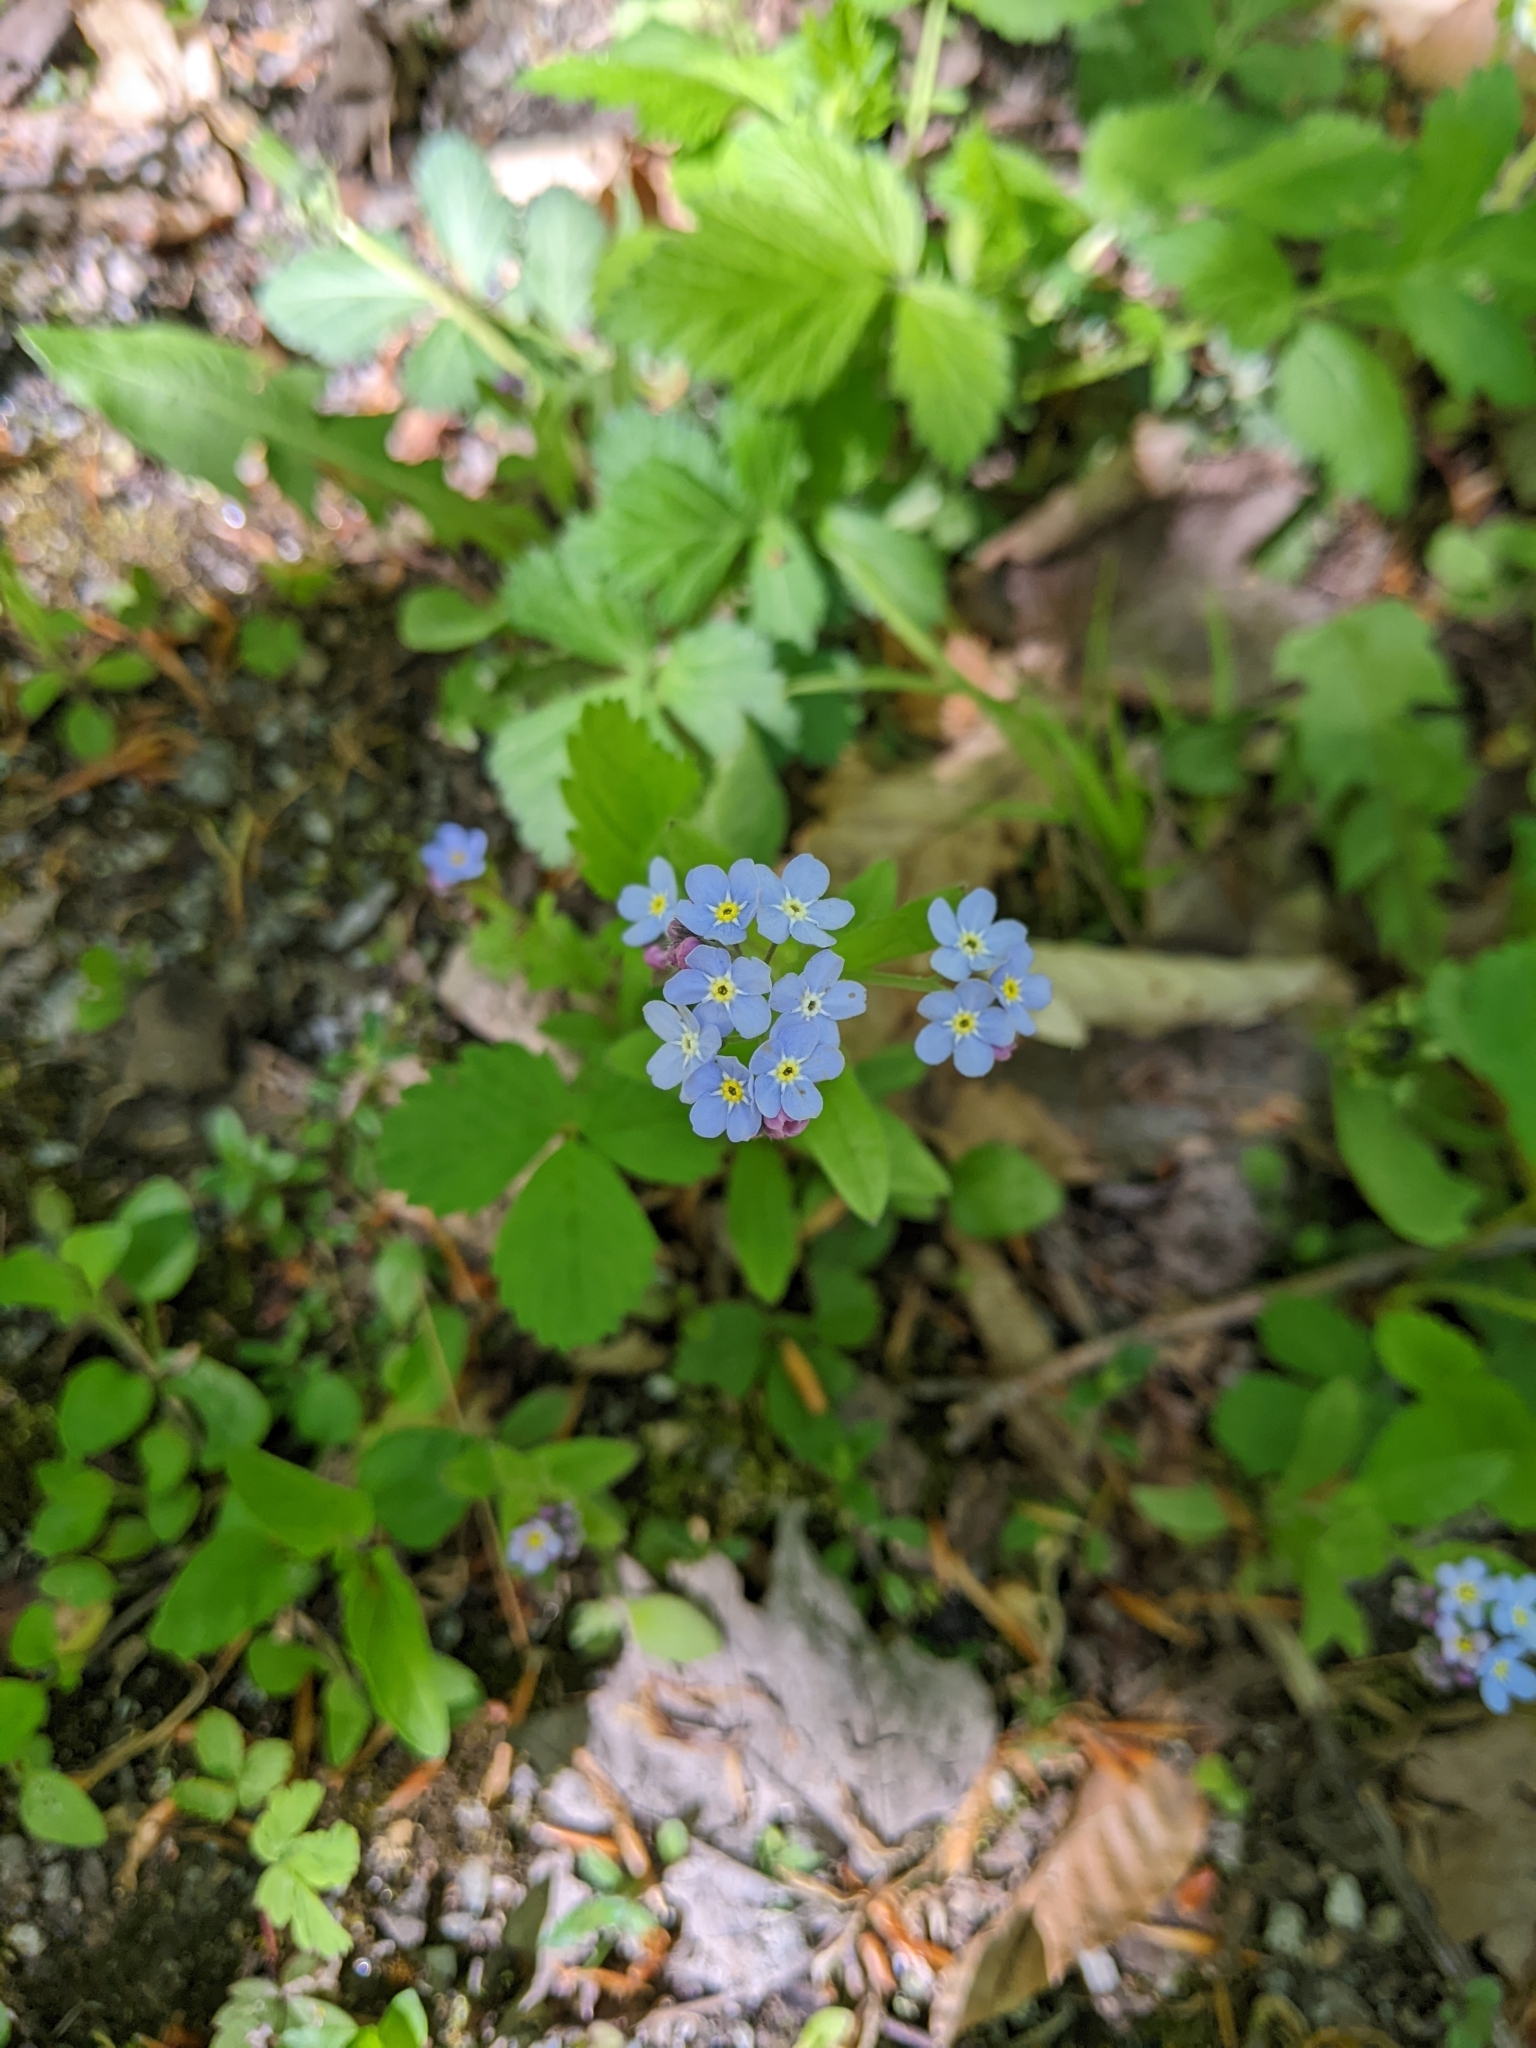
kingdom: Plantae
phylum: Tracheophyta
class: Magnoliopsida
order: Boraginales
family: Boraginaceae
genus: Myosotis
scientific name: Myosotis sylvatica
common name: Wood forget-me-not
